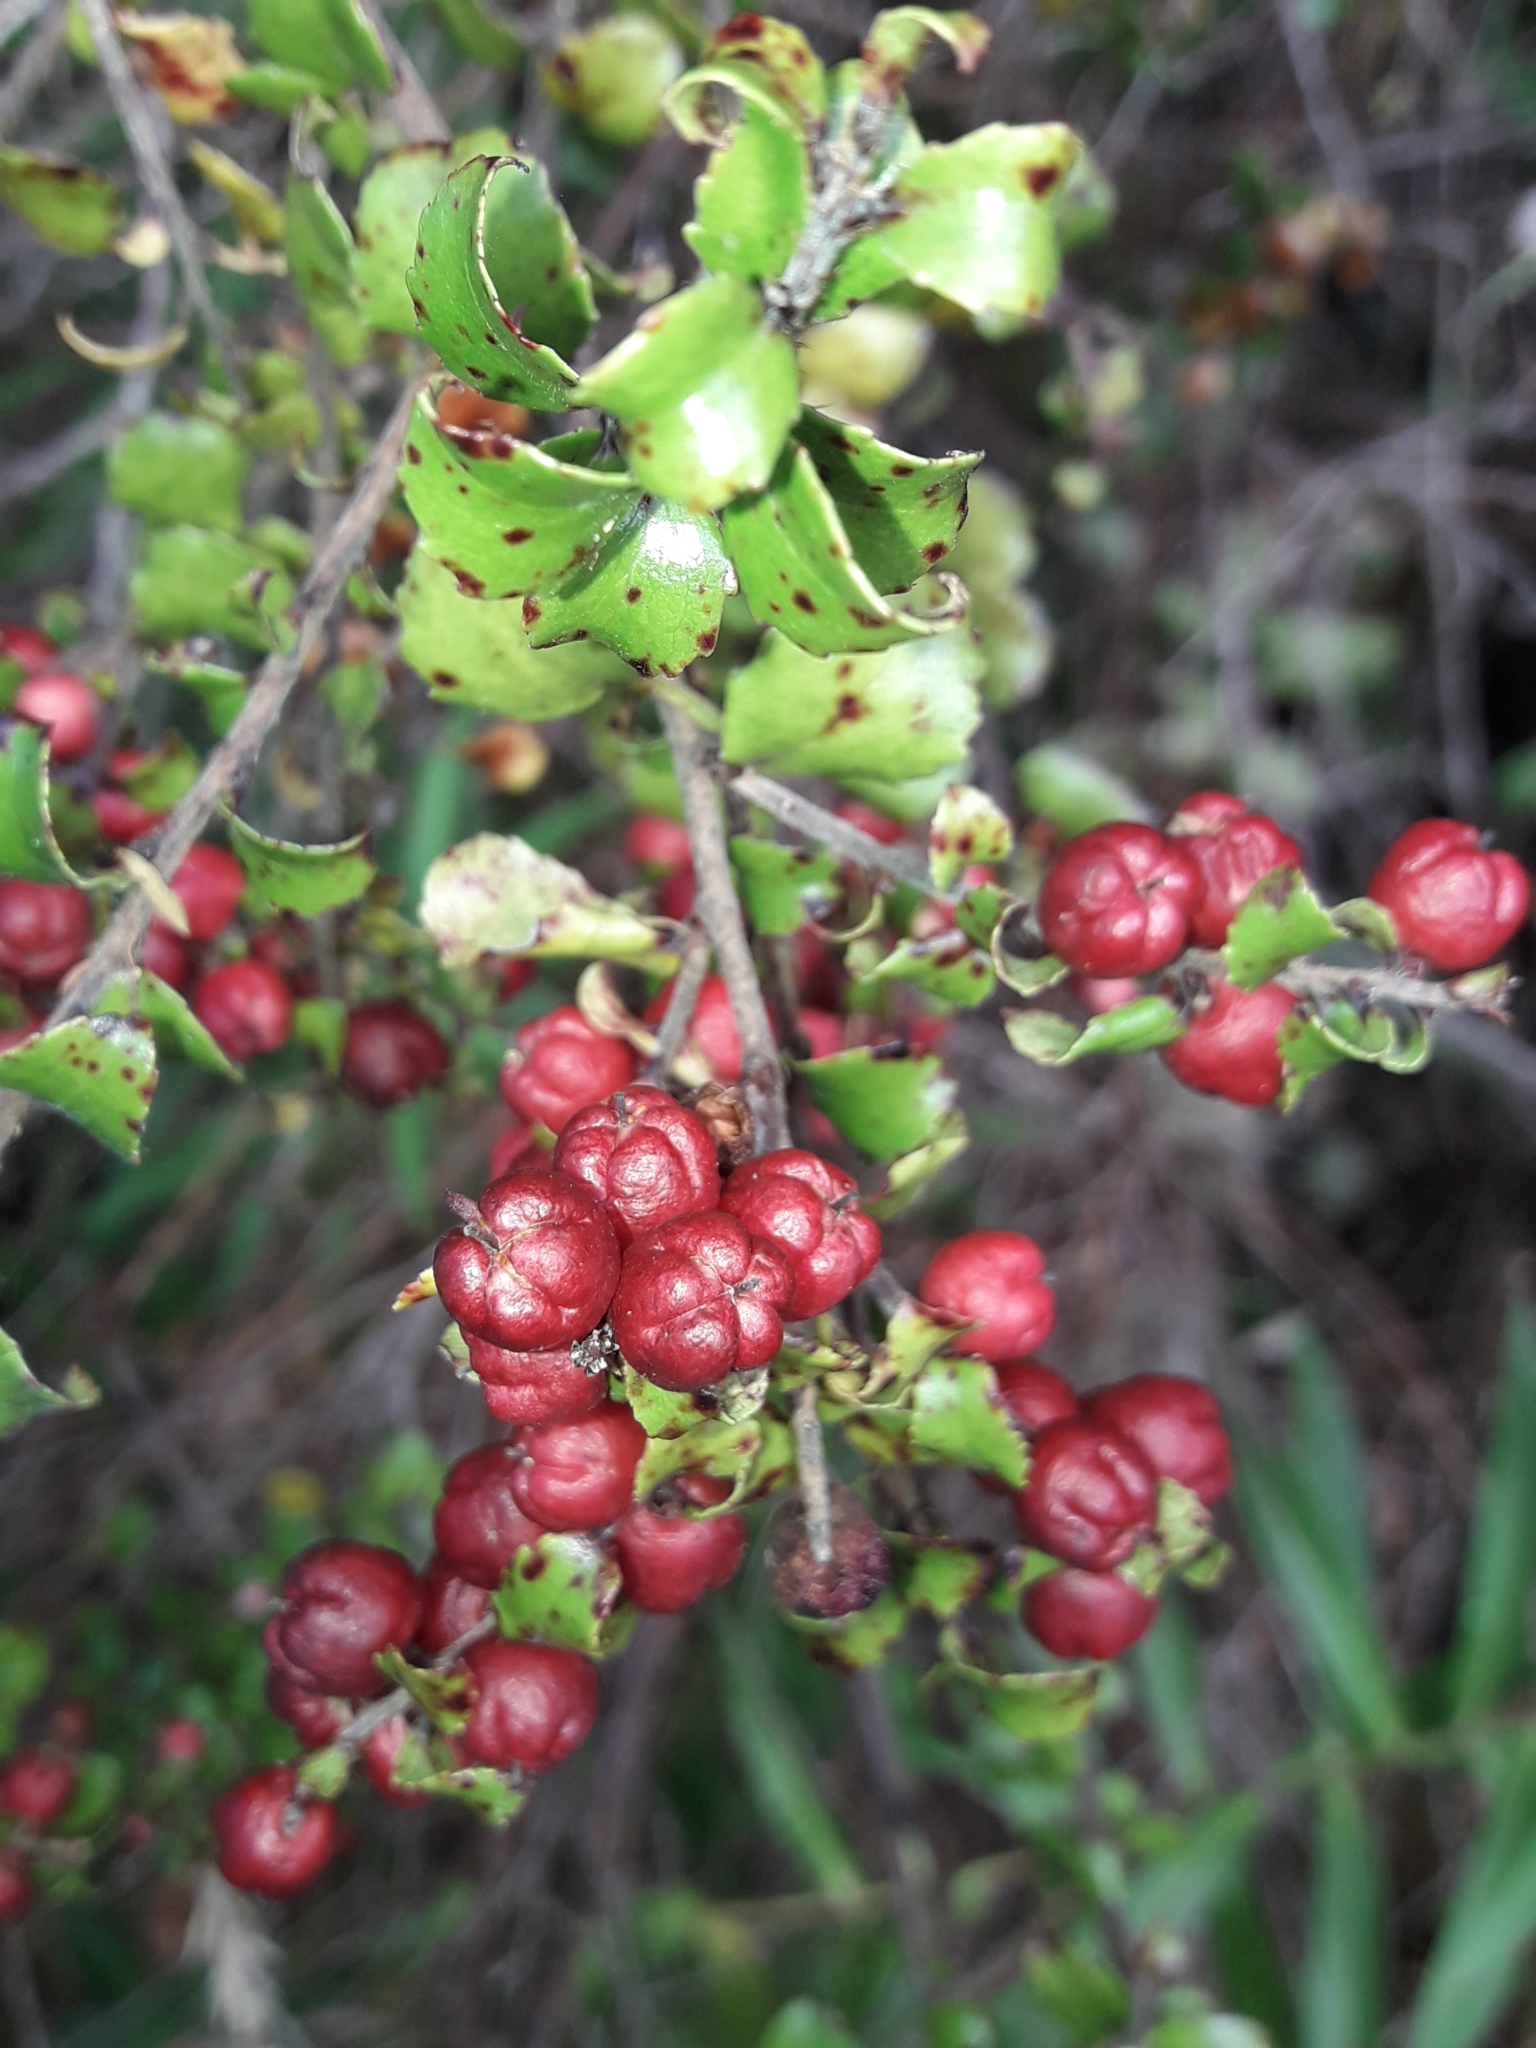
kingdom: Plantae
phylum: Tracheophyta
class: Magnoliopsida
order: Ericales
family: Ericaceae
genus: Gaultheria
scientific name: Gaultheria antipoda
